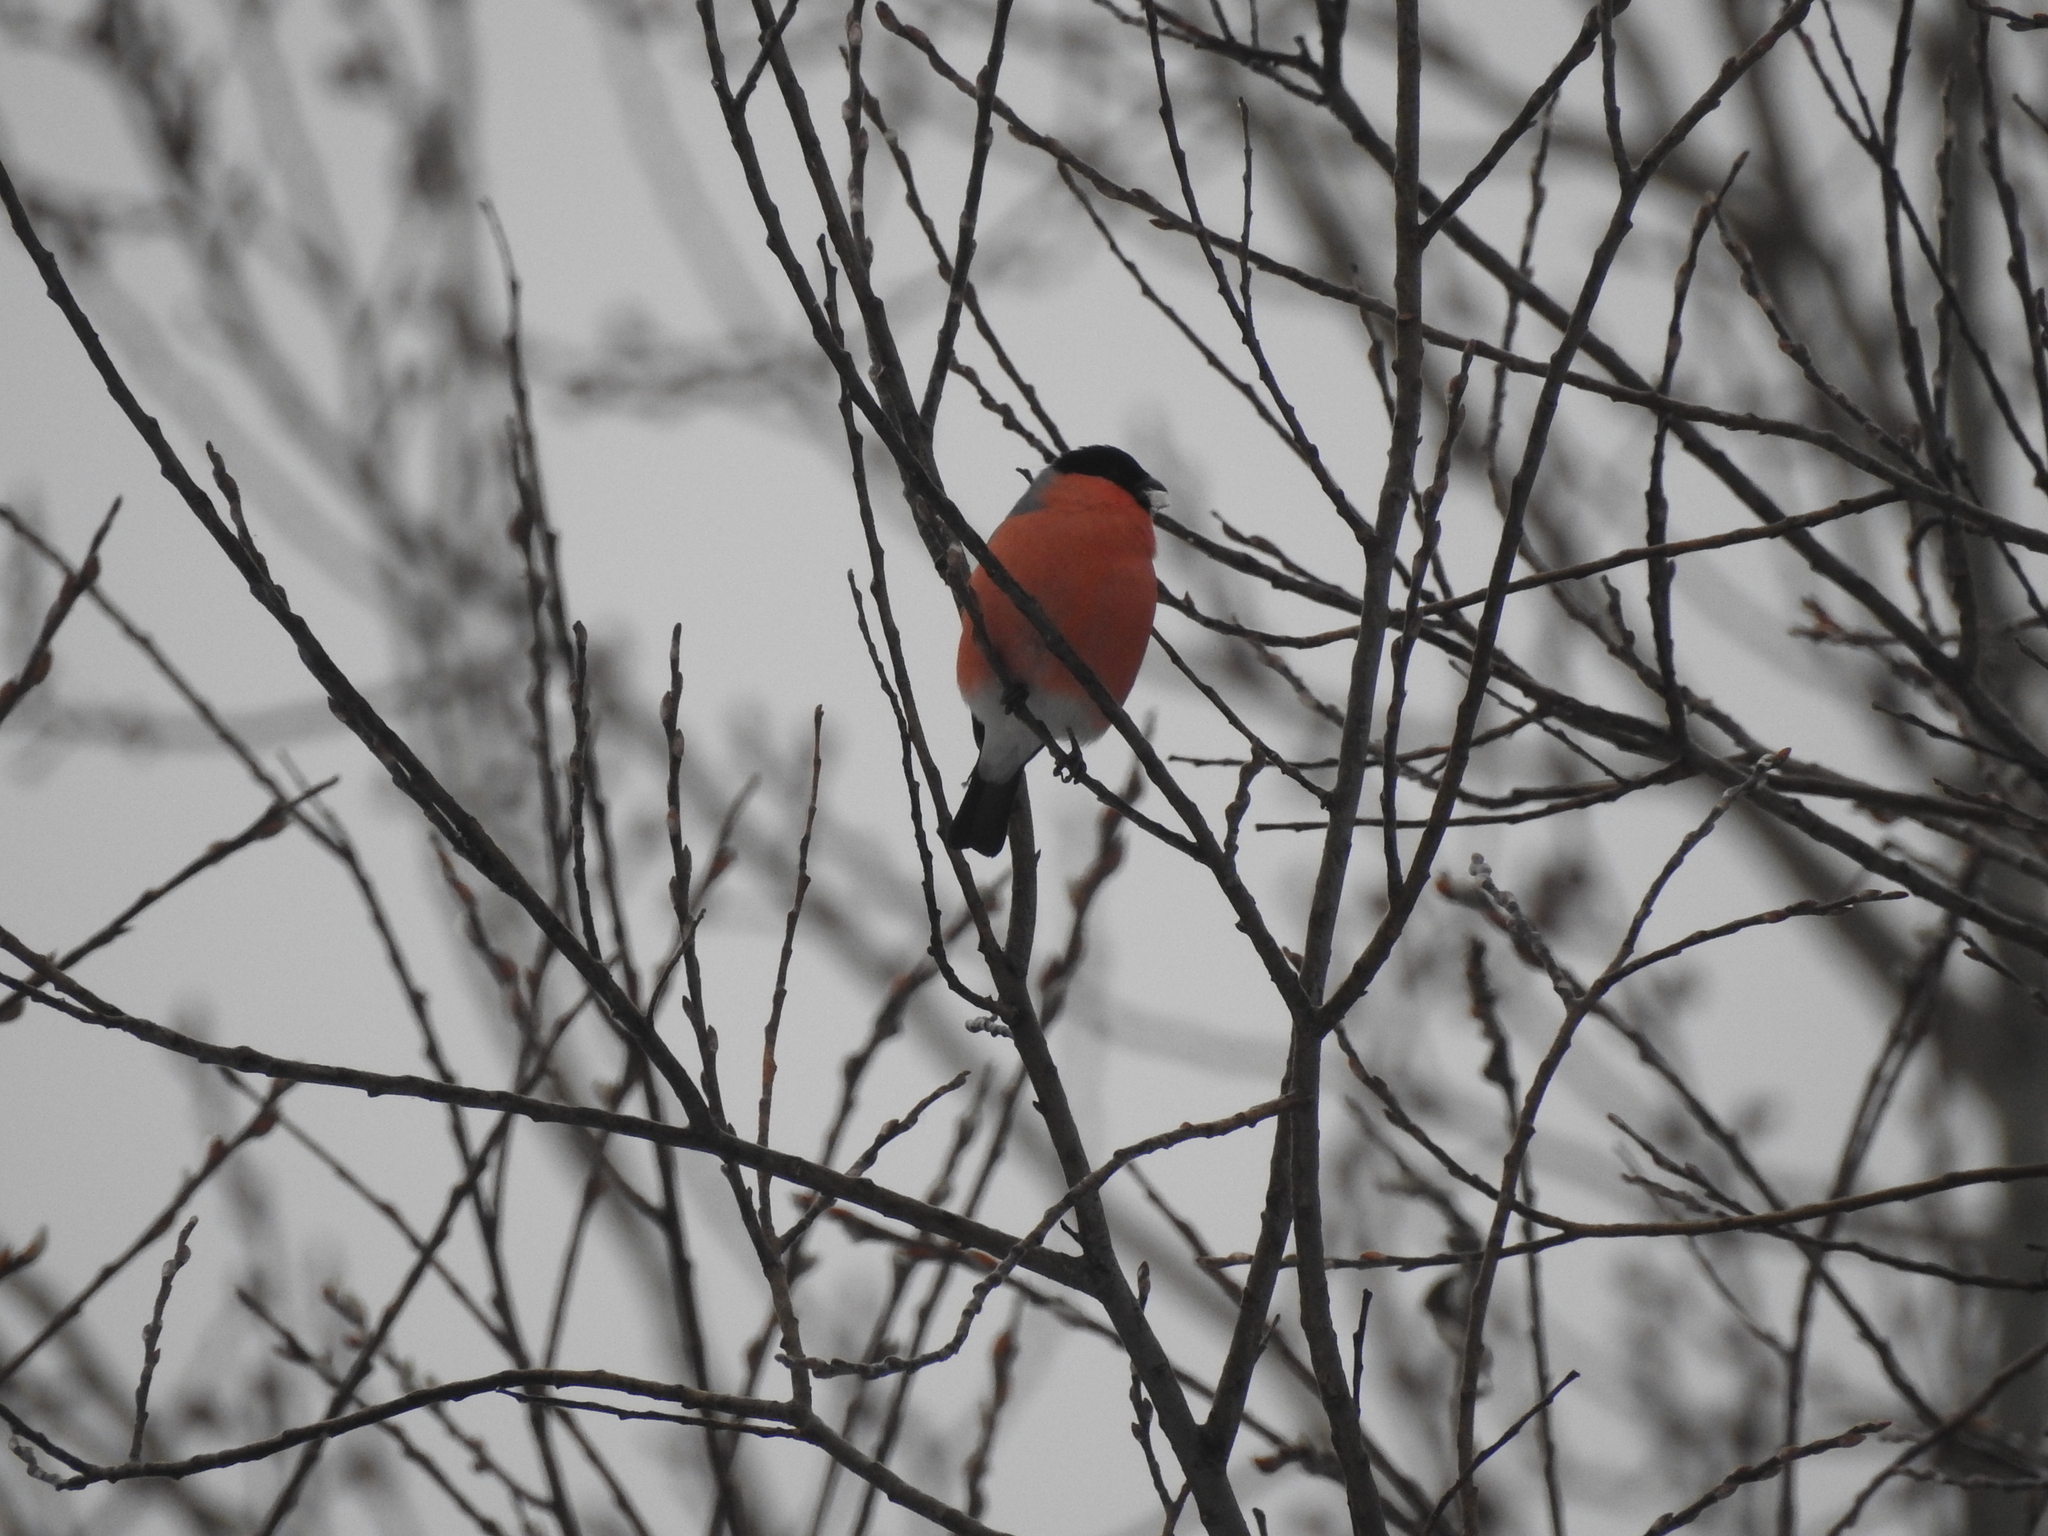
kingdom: Animalia
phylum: Chordata
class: Aves
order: Passeriformes
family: Fringillidae
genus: Pyrrhula
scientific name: Pyrrhula pyrrhula
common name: Eurasian bullfinch
